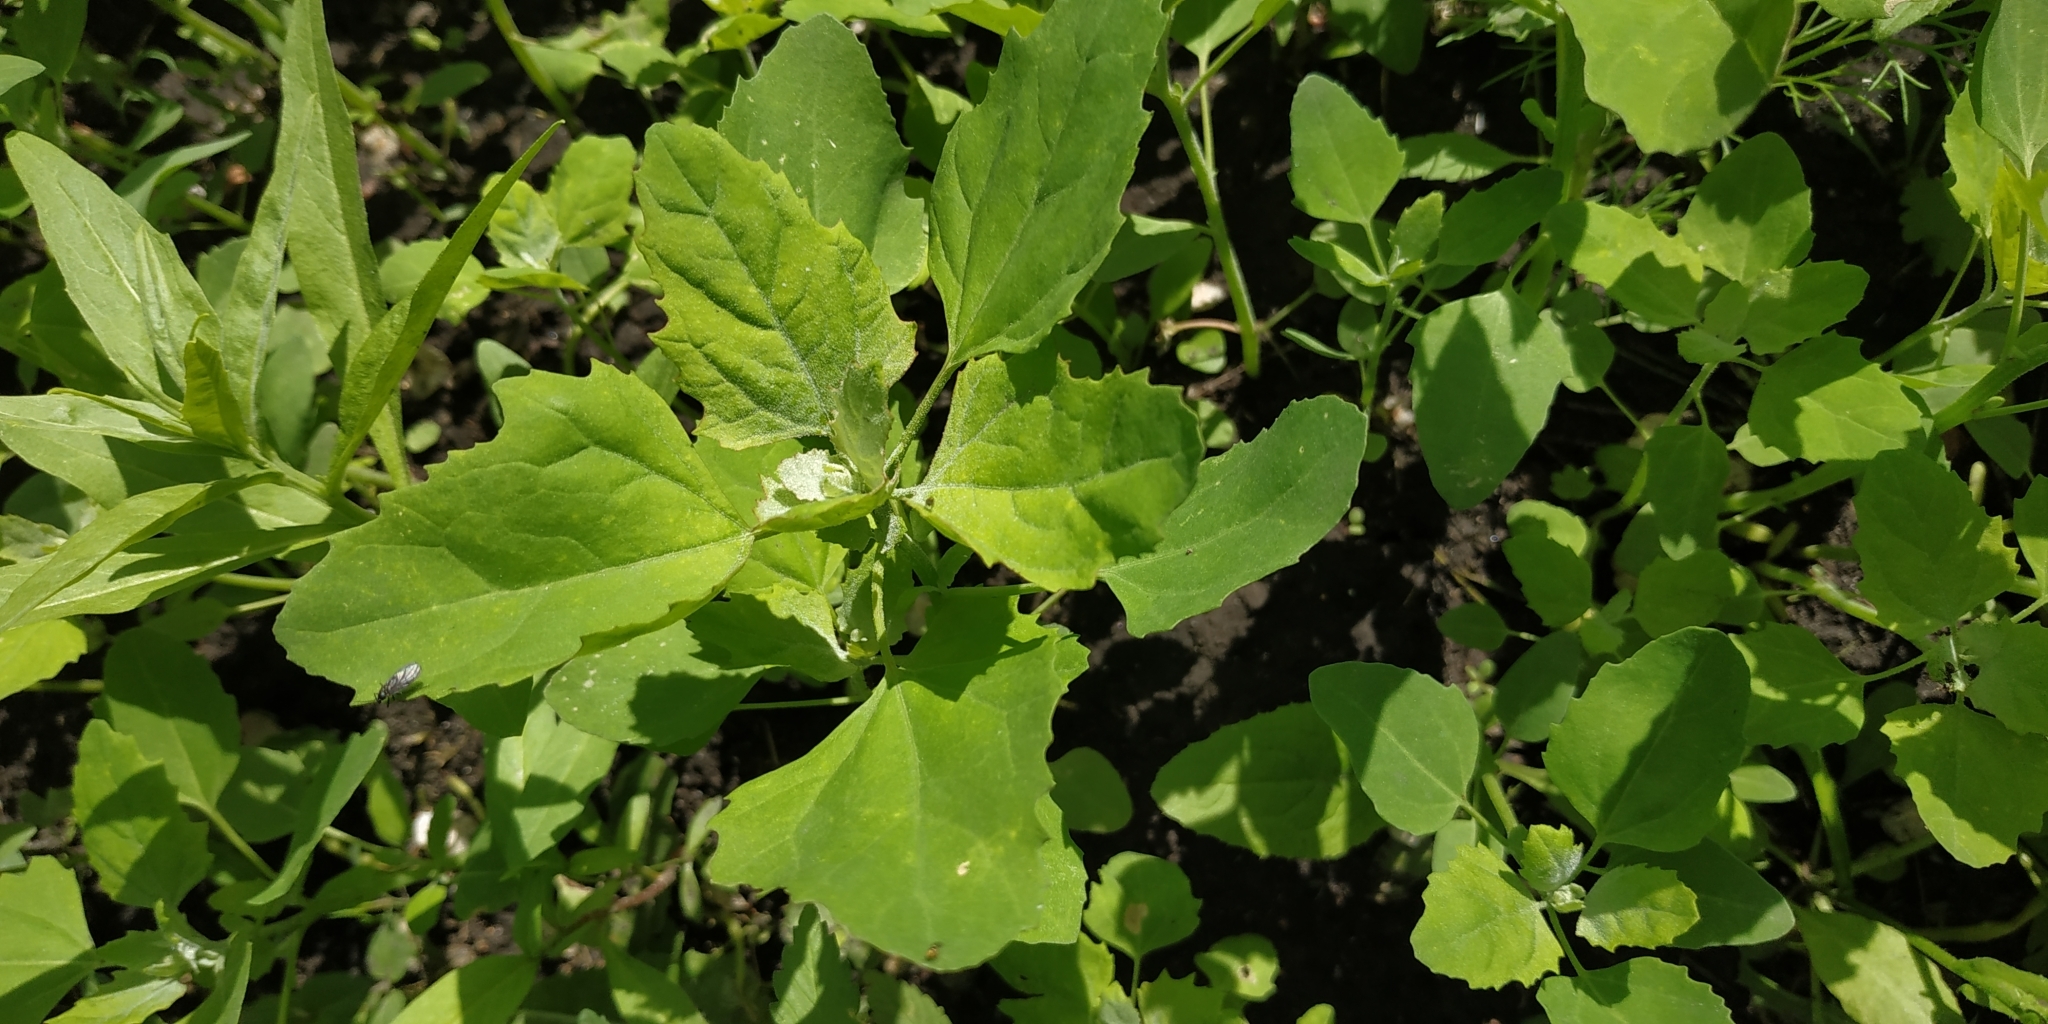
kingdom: Plantae
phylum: Tracheophyta
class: Magnoliopsida
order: Caryophyllales
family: Amaranthaceae
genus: Chenopodium
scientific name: Chenopodium album
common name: Fat-hen
